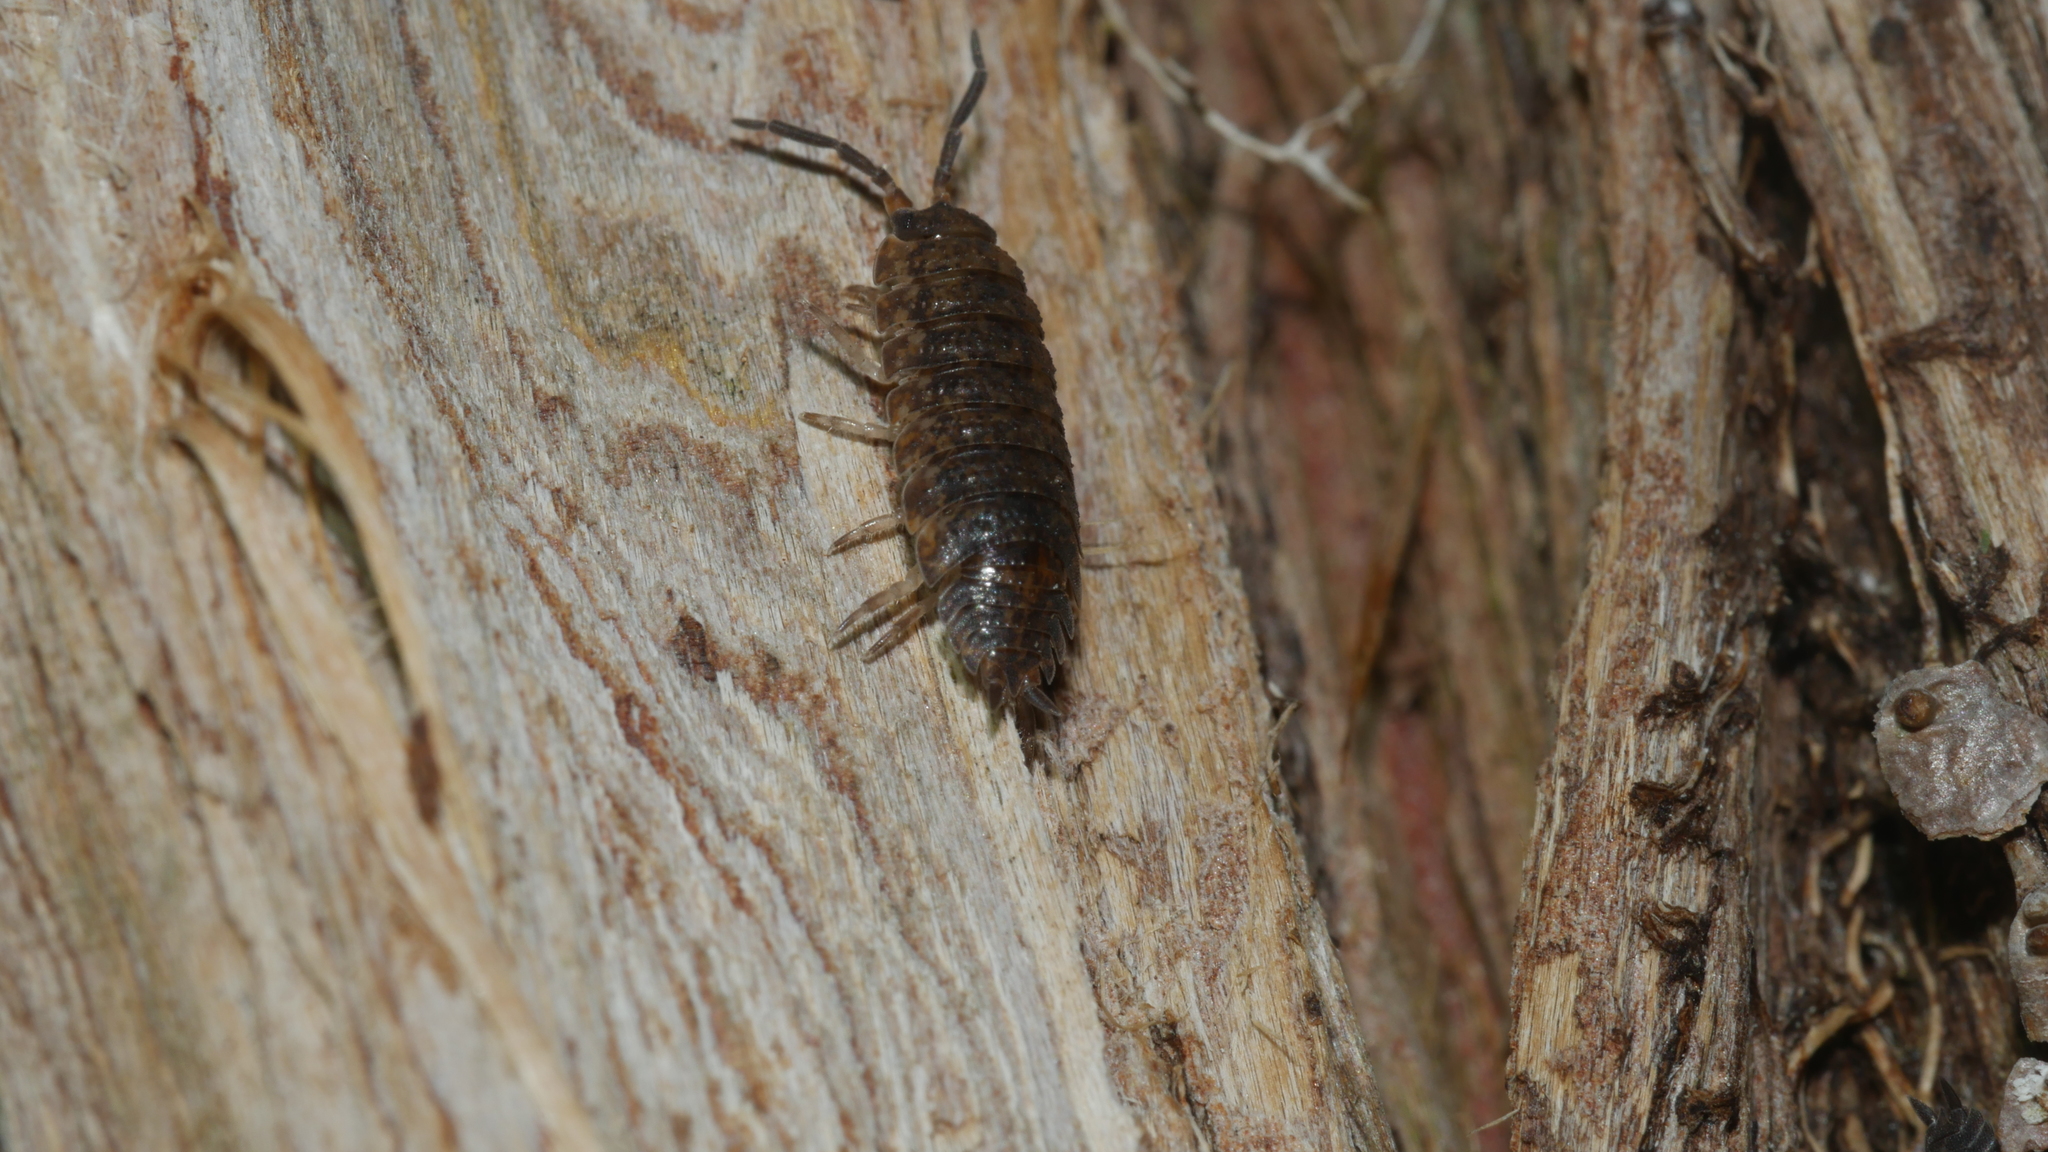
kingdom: Animalia
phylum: Arthropoda
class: Malacostraca
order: Isopoda
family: Porcellionidae
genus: Porcellio
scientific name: Porcellio scaber
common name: Common rough woodlouse
